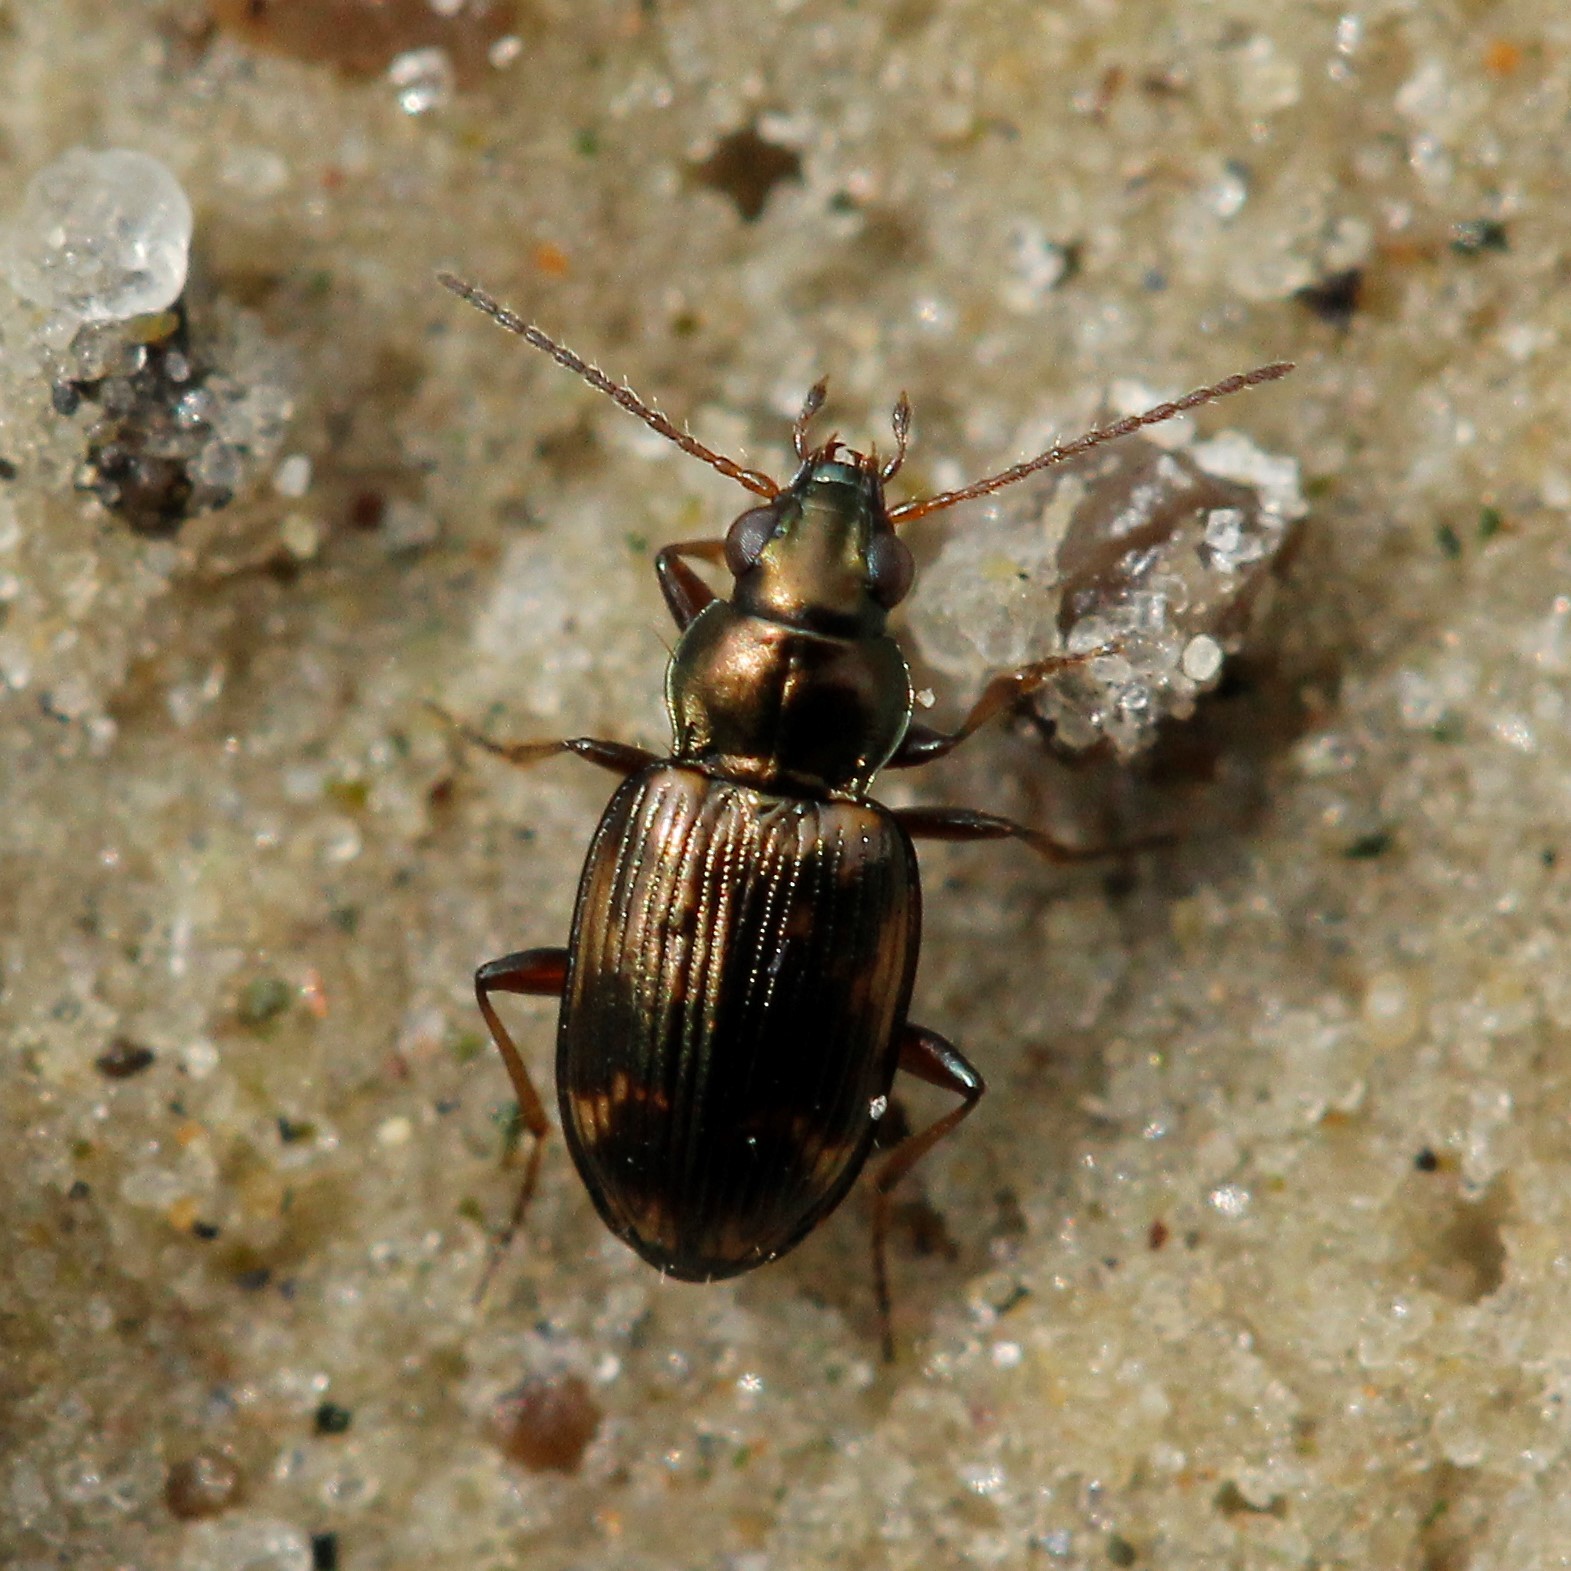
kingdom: Animalia
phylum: Arthropoda
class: Insecta
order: Coleoptera
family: Carabidae
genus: Bembidion
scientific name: Bembidion varium
